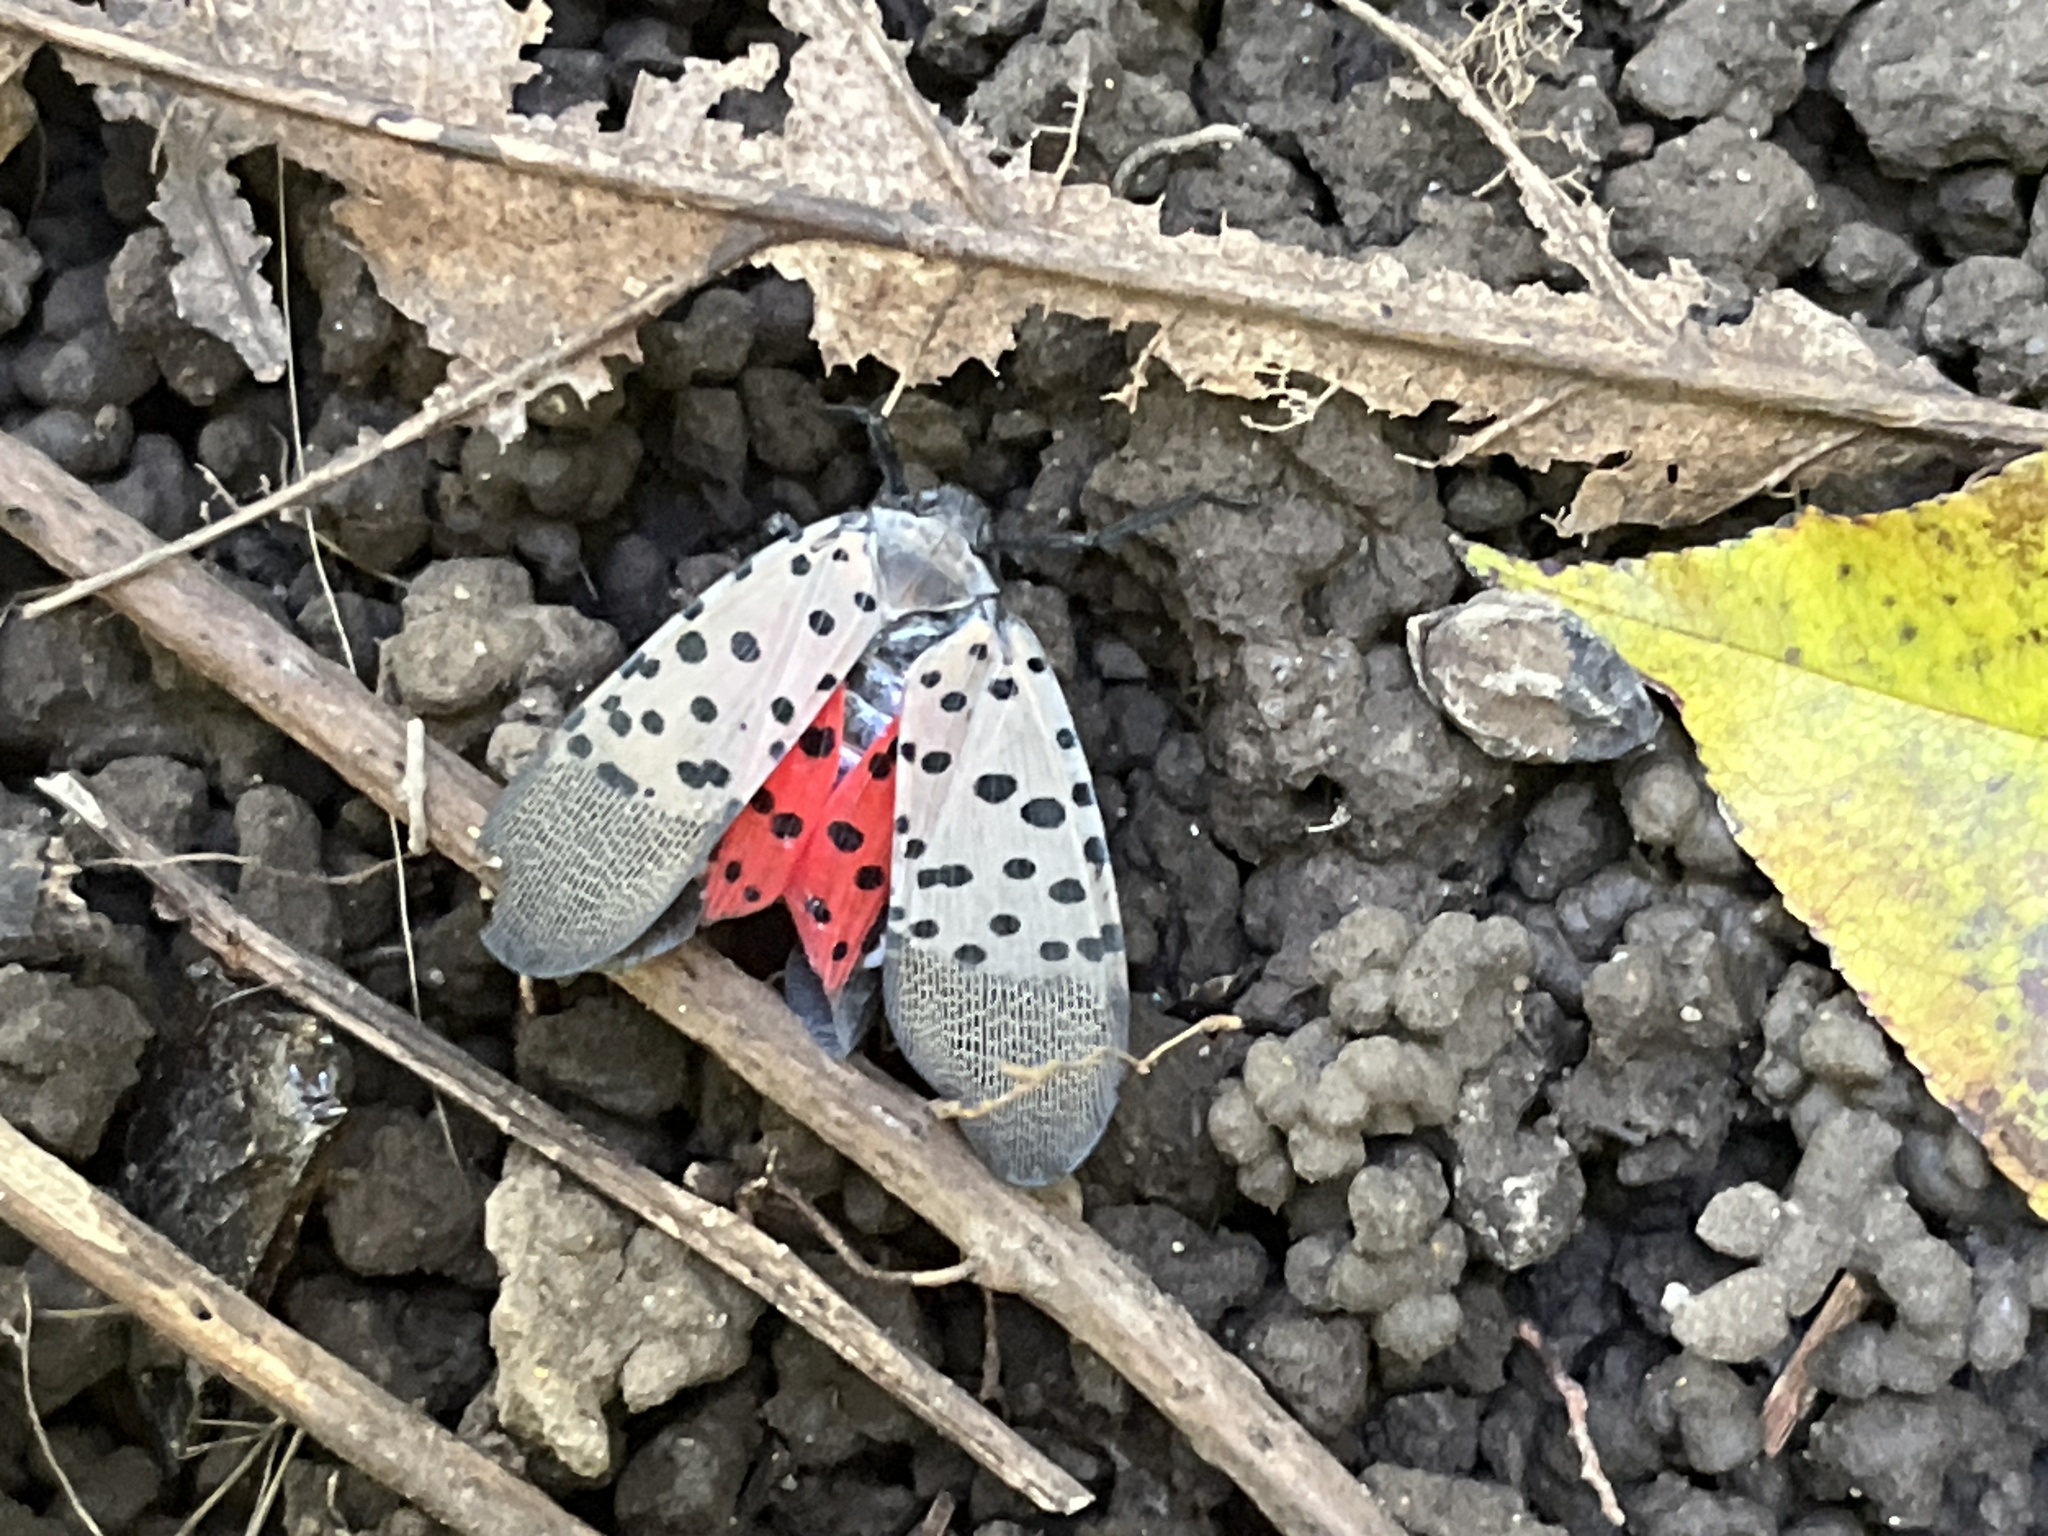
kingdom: Animalia
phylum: Arthropoda
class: Insecta
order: Hemiptera
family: Fulgoridae
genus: Lycorma
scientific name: Lycorma delicatula
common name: Spotted lanternfly
